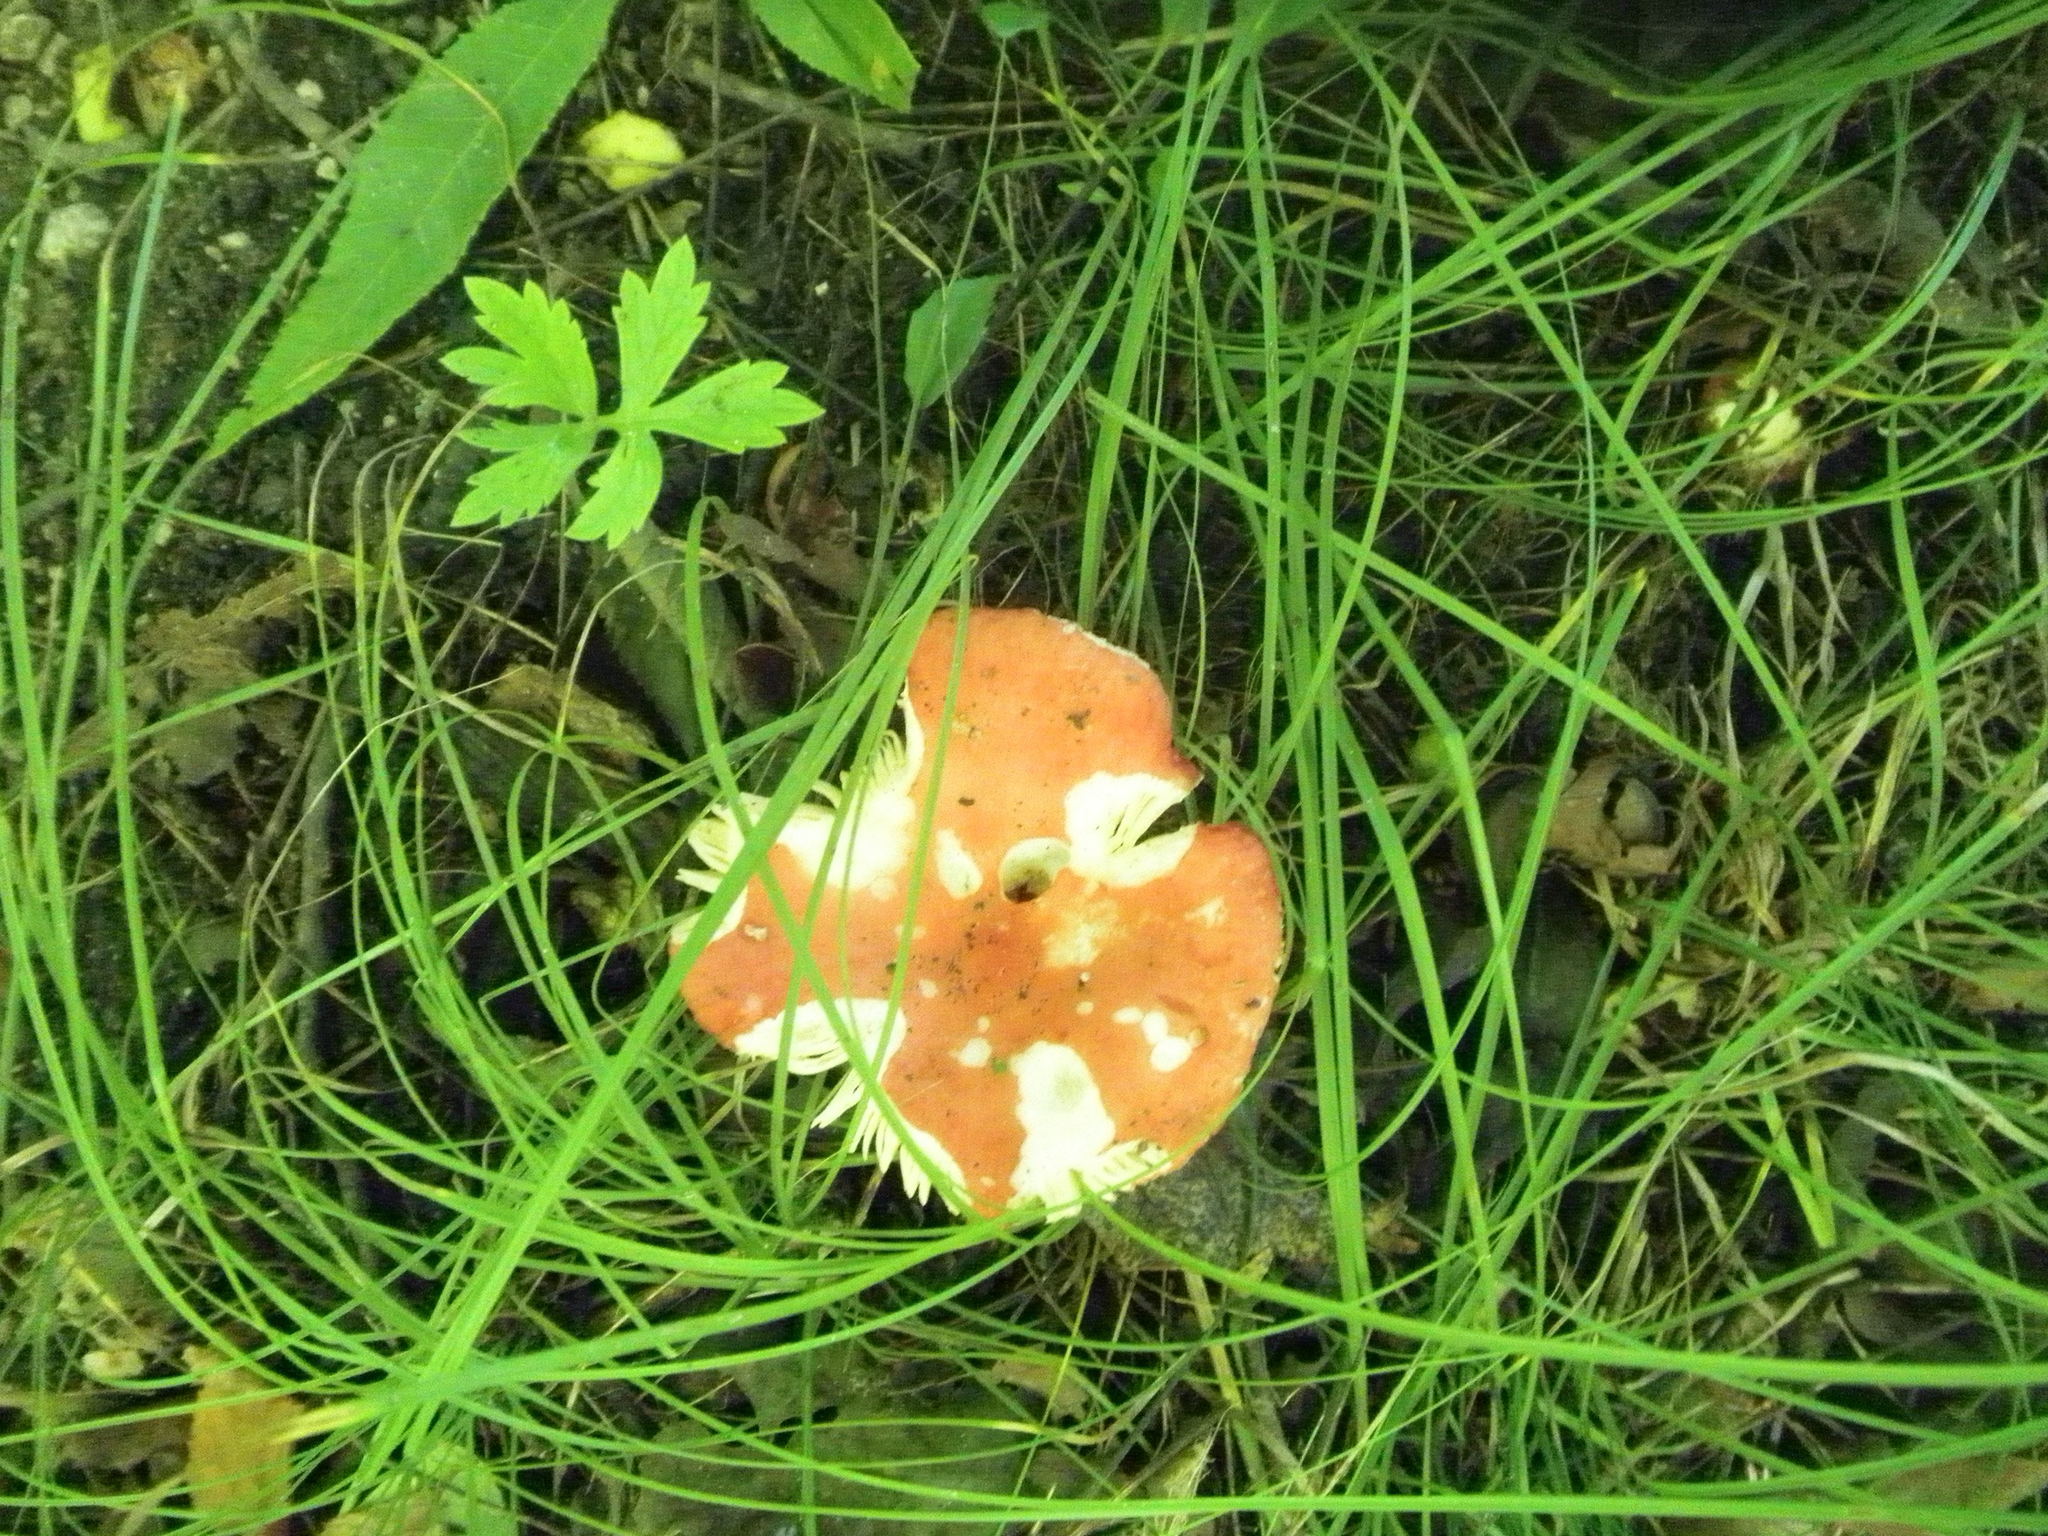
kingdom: Fungi
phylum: Basidiomycota
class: Agaricomycetes
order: Russulales
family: Russulaceae
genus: Russula
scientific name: Russula
